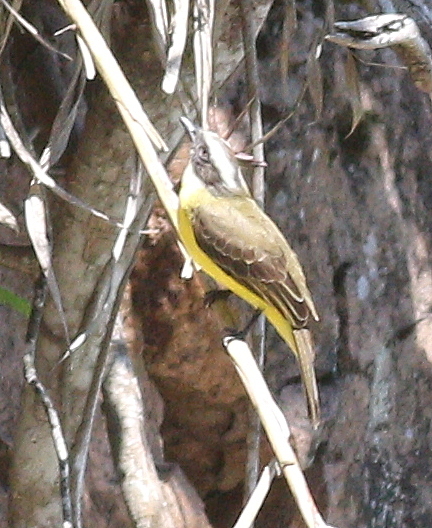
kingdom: Animalia
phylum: Chordata
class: Aves
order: Passeriformes
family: Tyrannidae
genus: Myiozetetes
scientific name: Myiozetetes similis
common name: Social flycatcher
